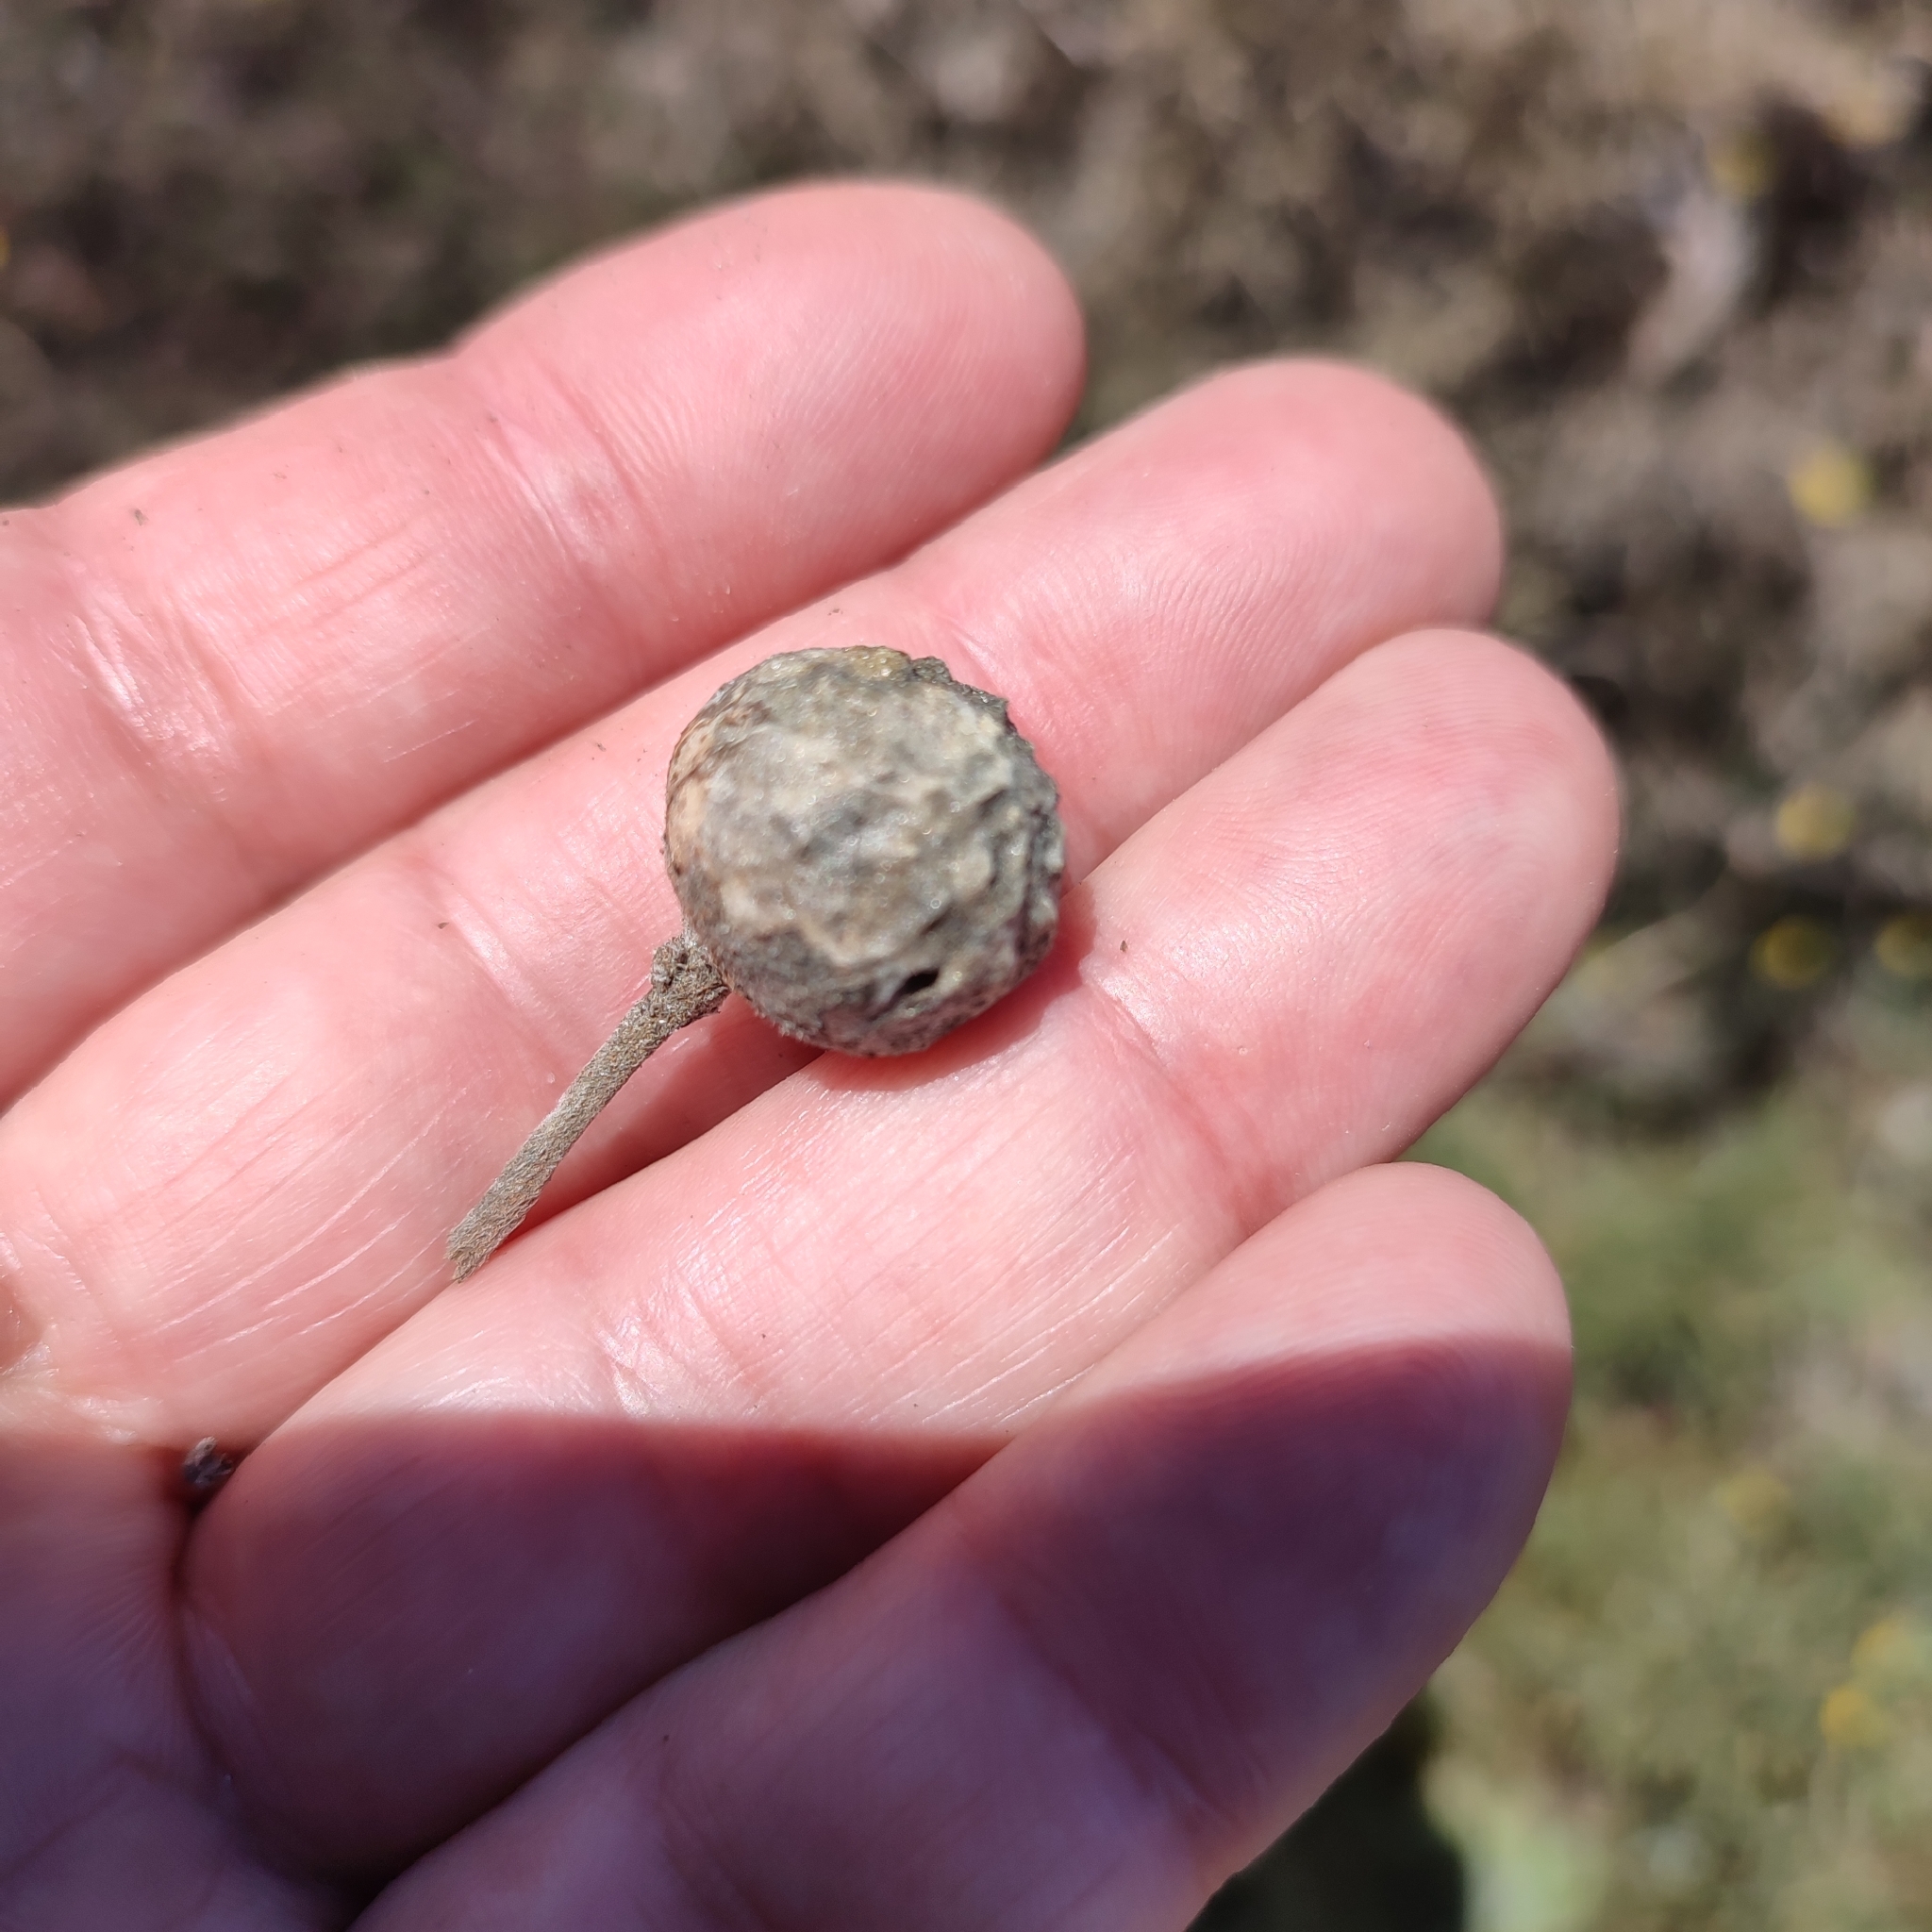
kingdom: Animalia
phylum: Arthropoda
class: Insecta
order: Hymenoptera
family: Cynipidae
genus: Rhodus
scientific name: Rhodus
